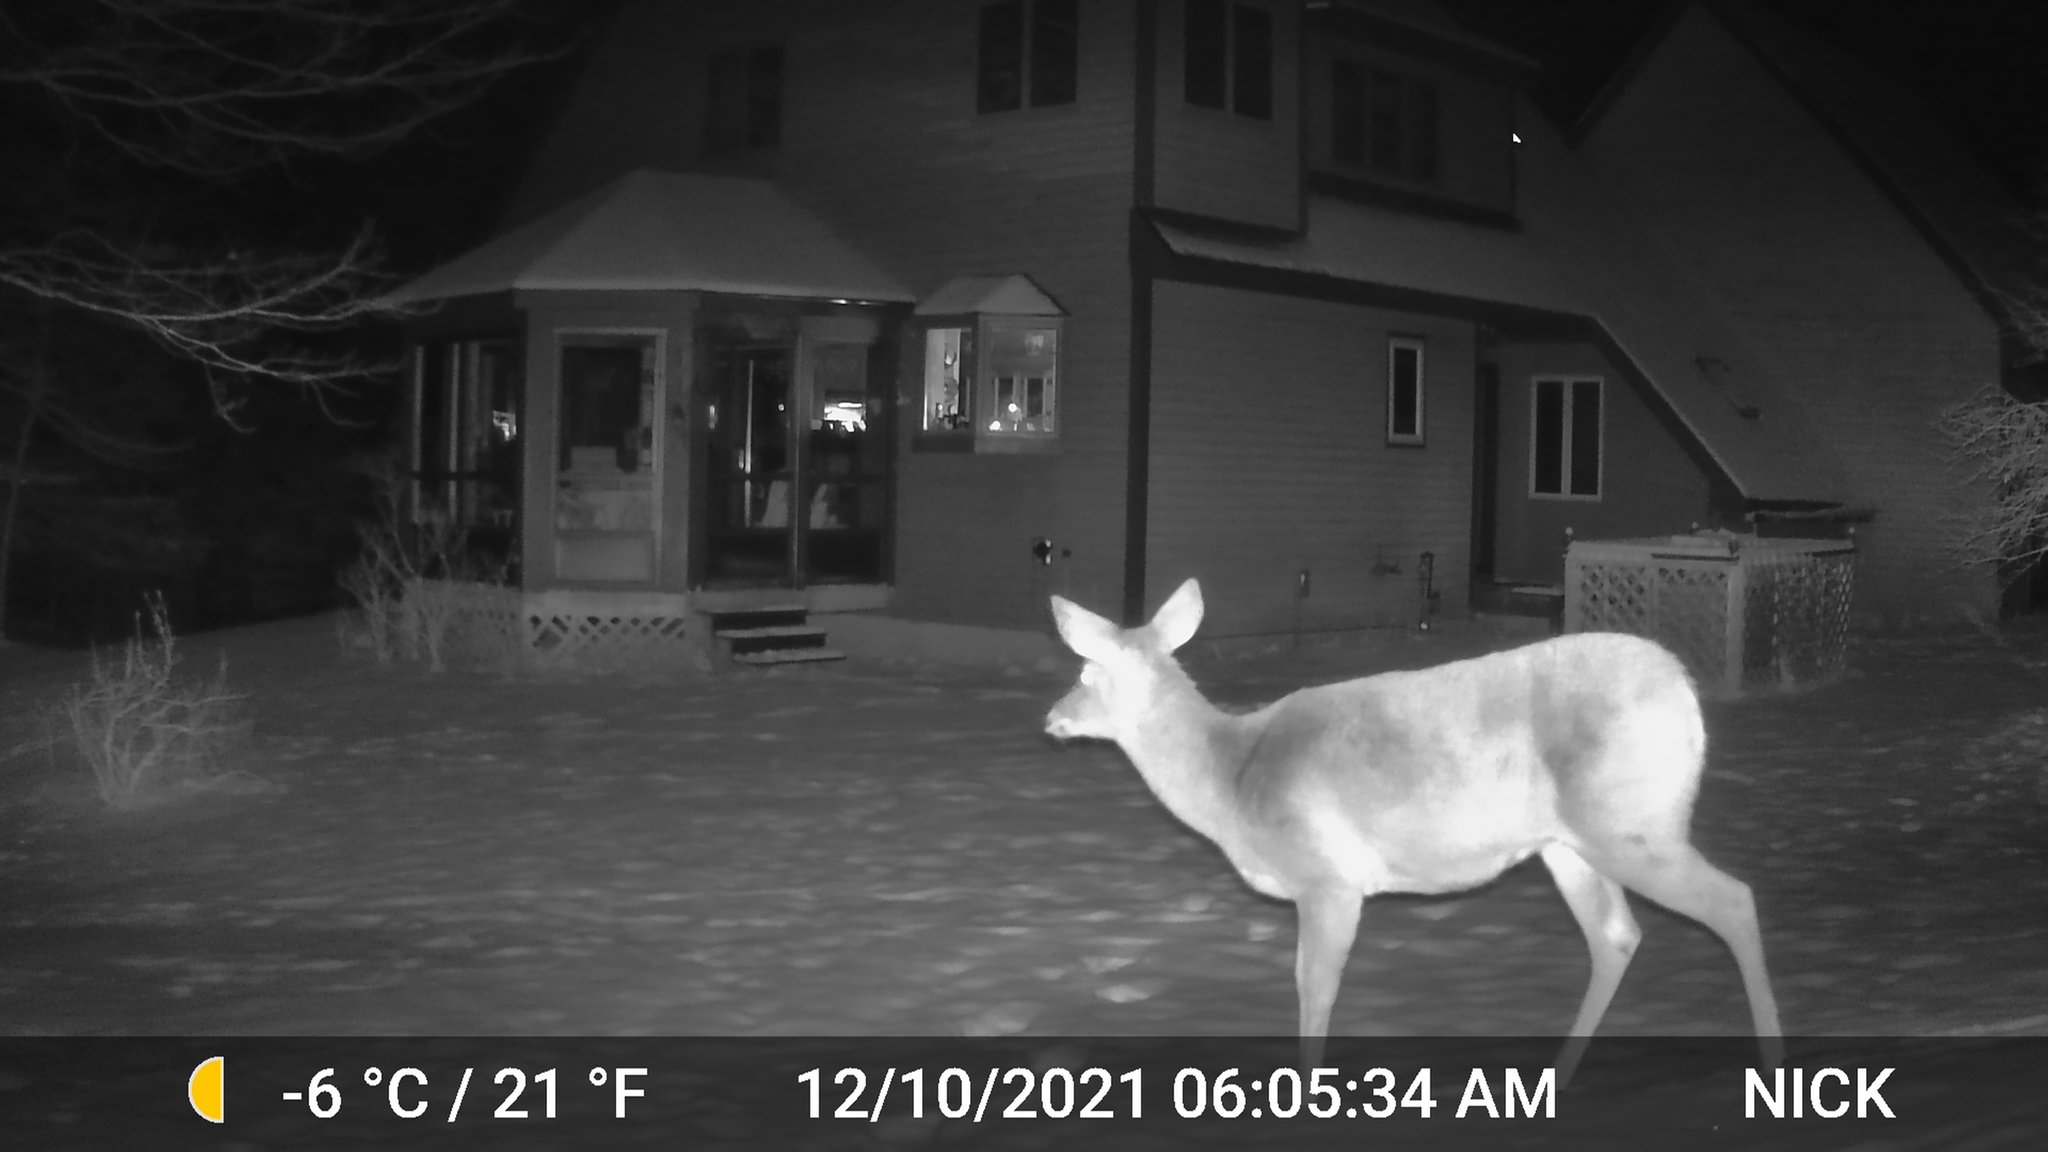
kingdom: Animalia
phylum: Chordata
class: Mammalia
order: Artiodactyla
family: Cervidae
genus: Odocoileus
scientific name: Odocoileus virginianus
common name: White-tailed deer
